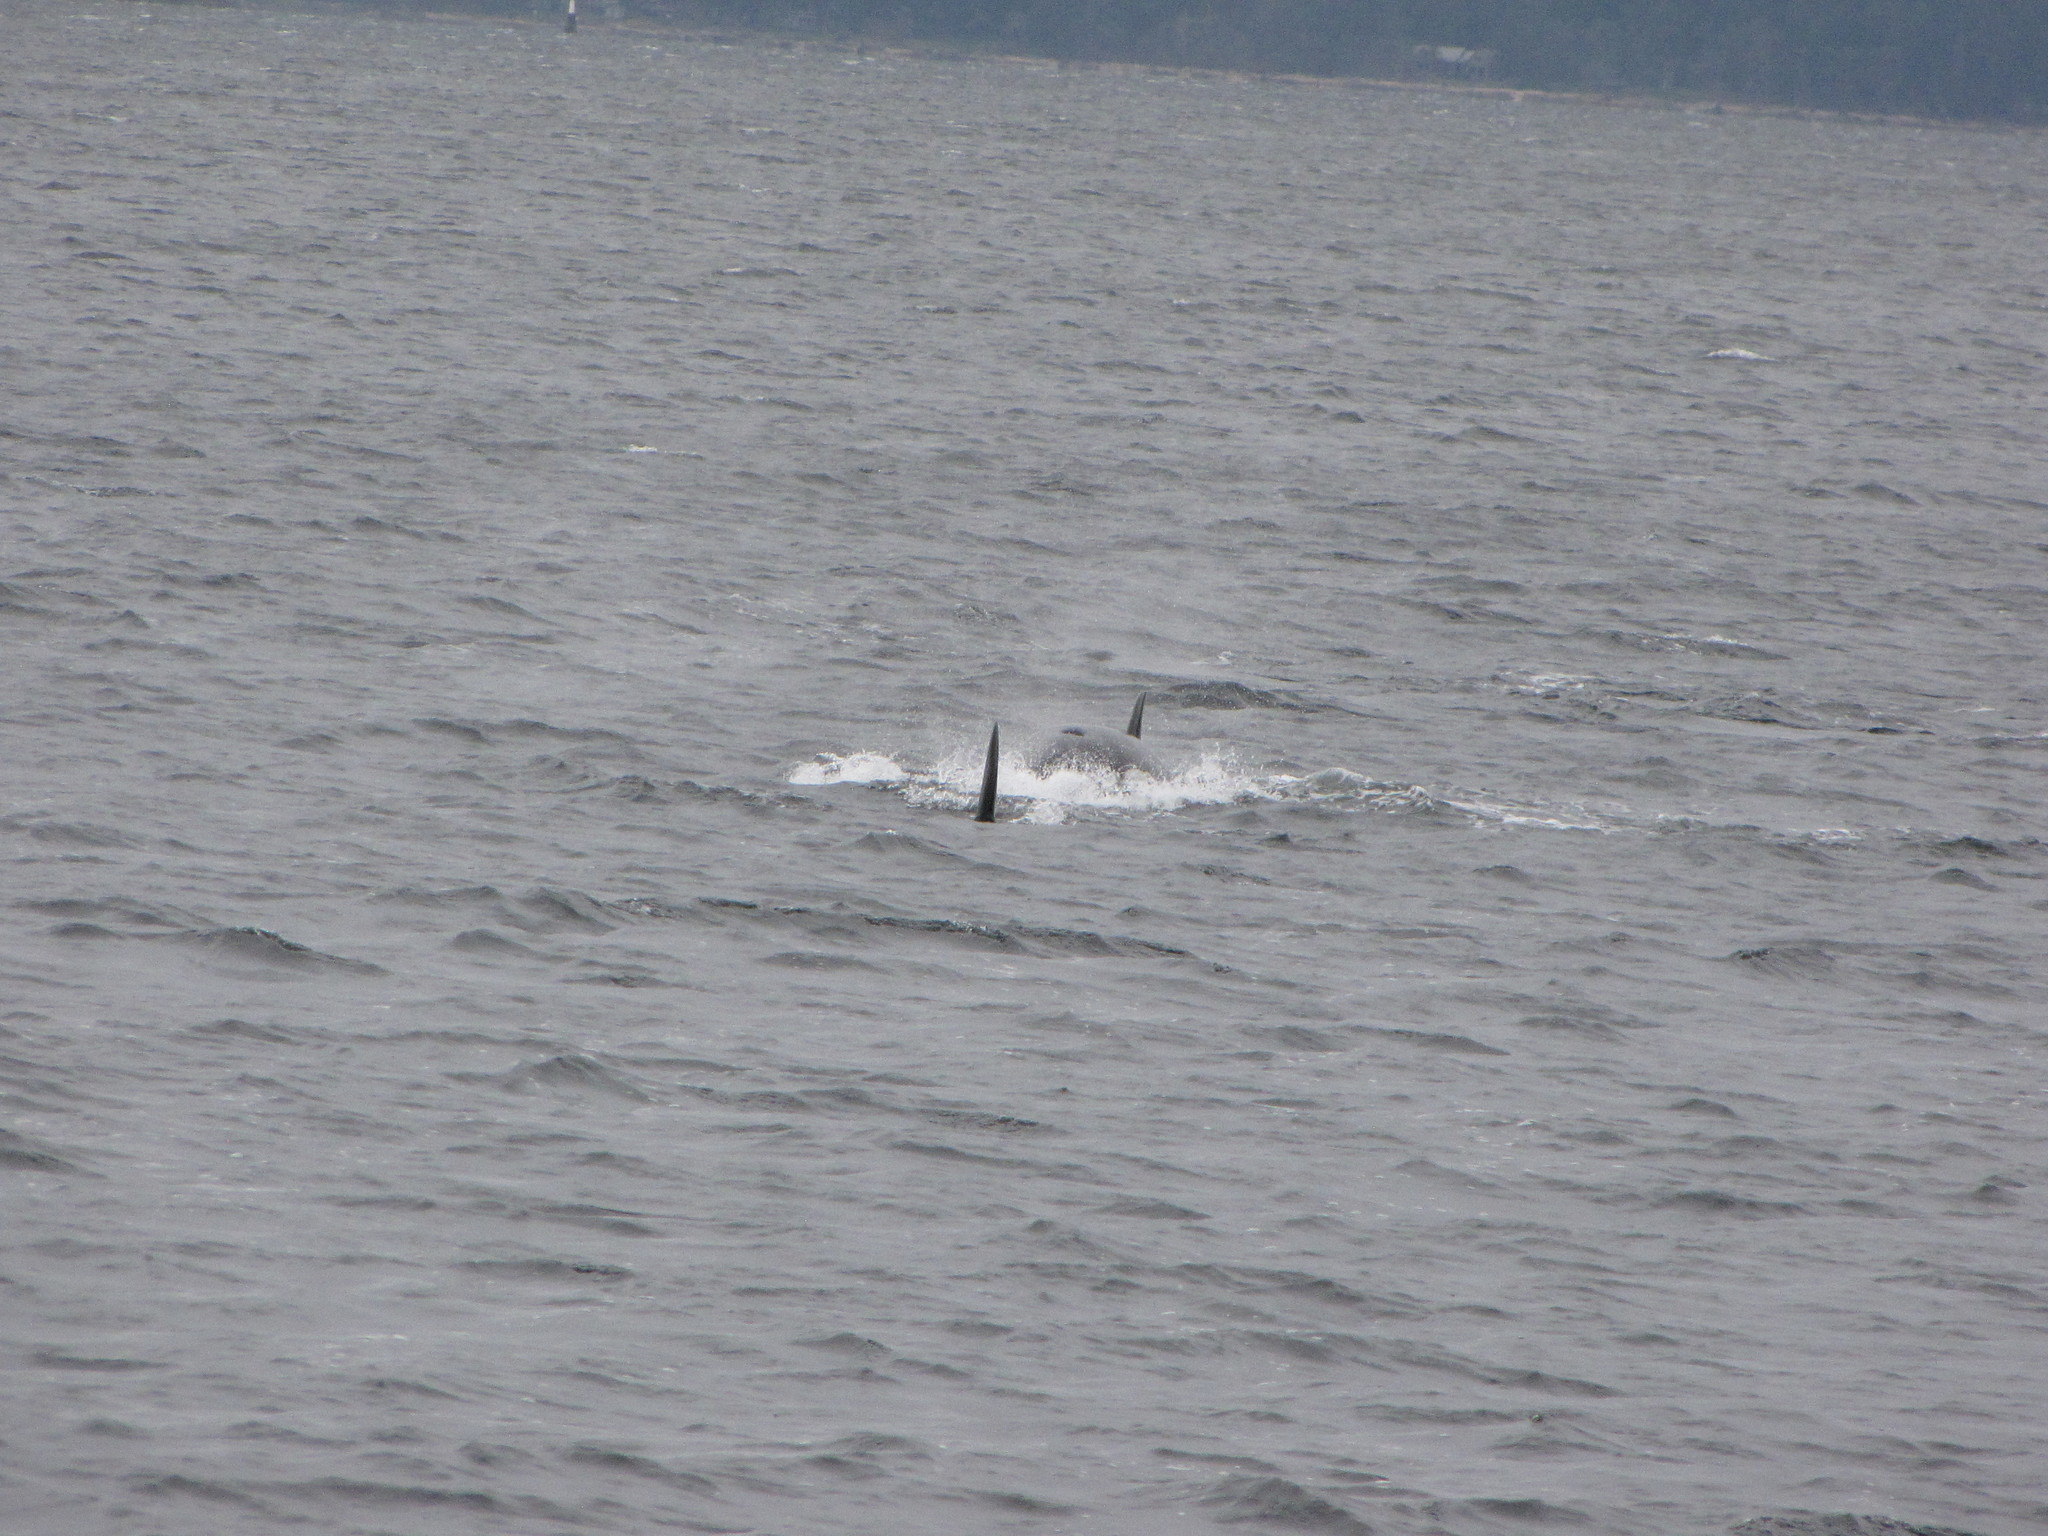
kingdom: Animalia
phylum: Chordata
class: Mammalia
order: Cetacea
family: Delphinidae
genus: Orcinus
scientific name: Orcinus orca
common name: Killer whale
